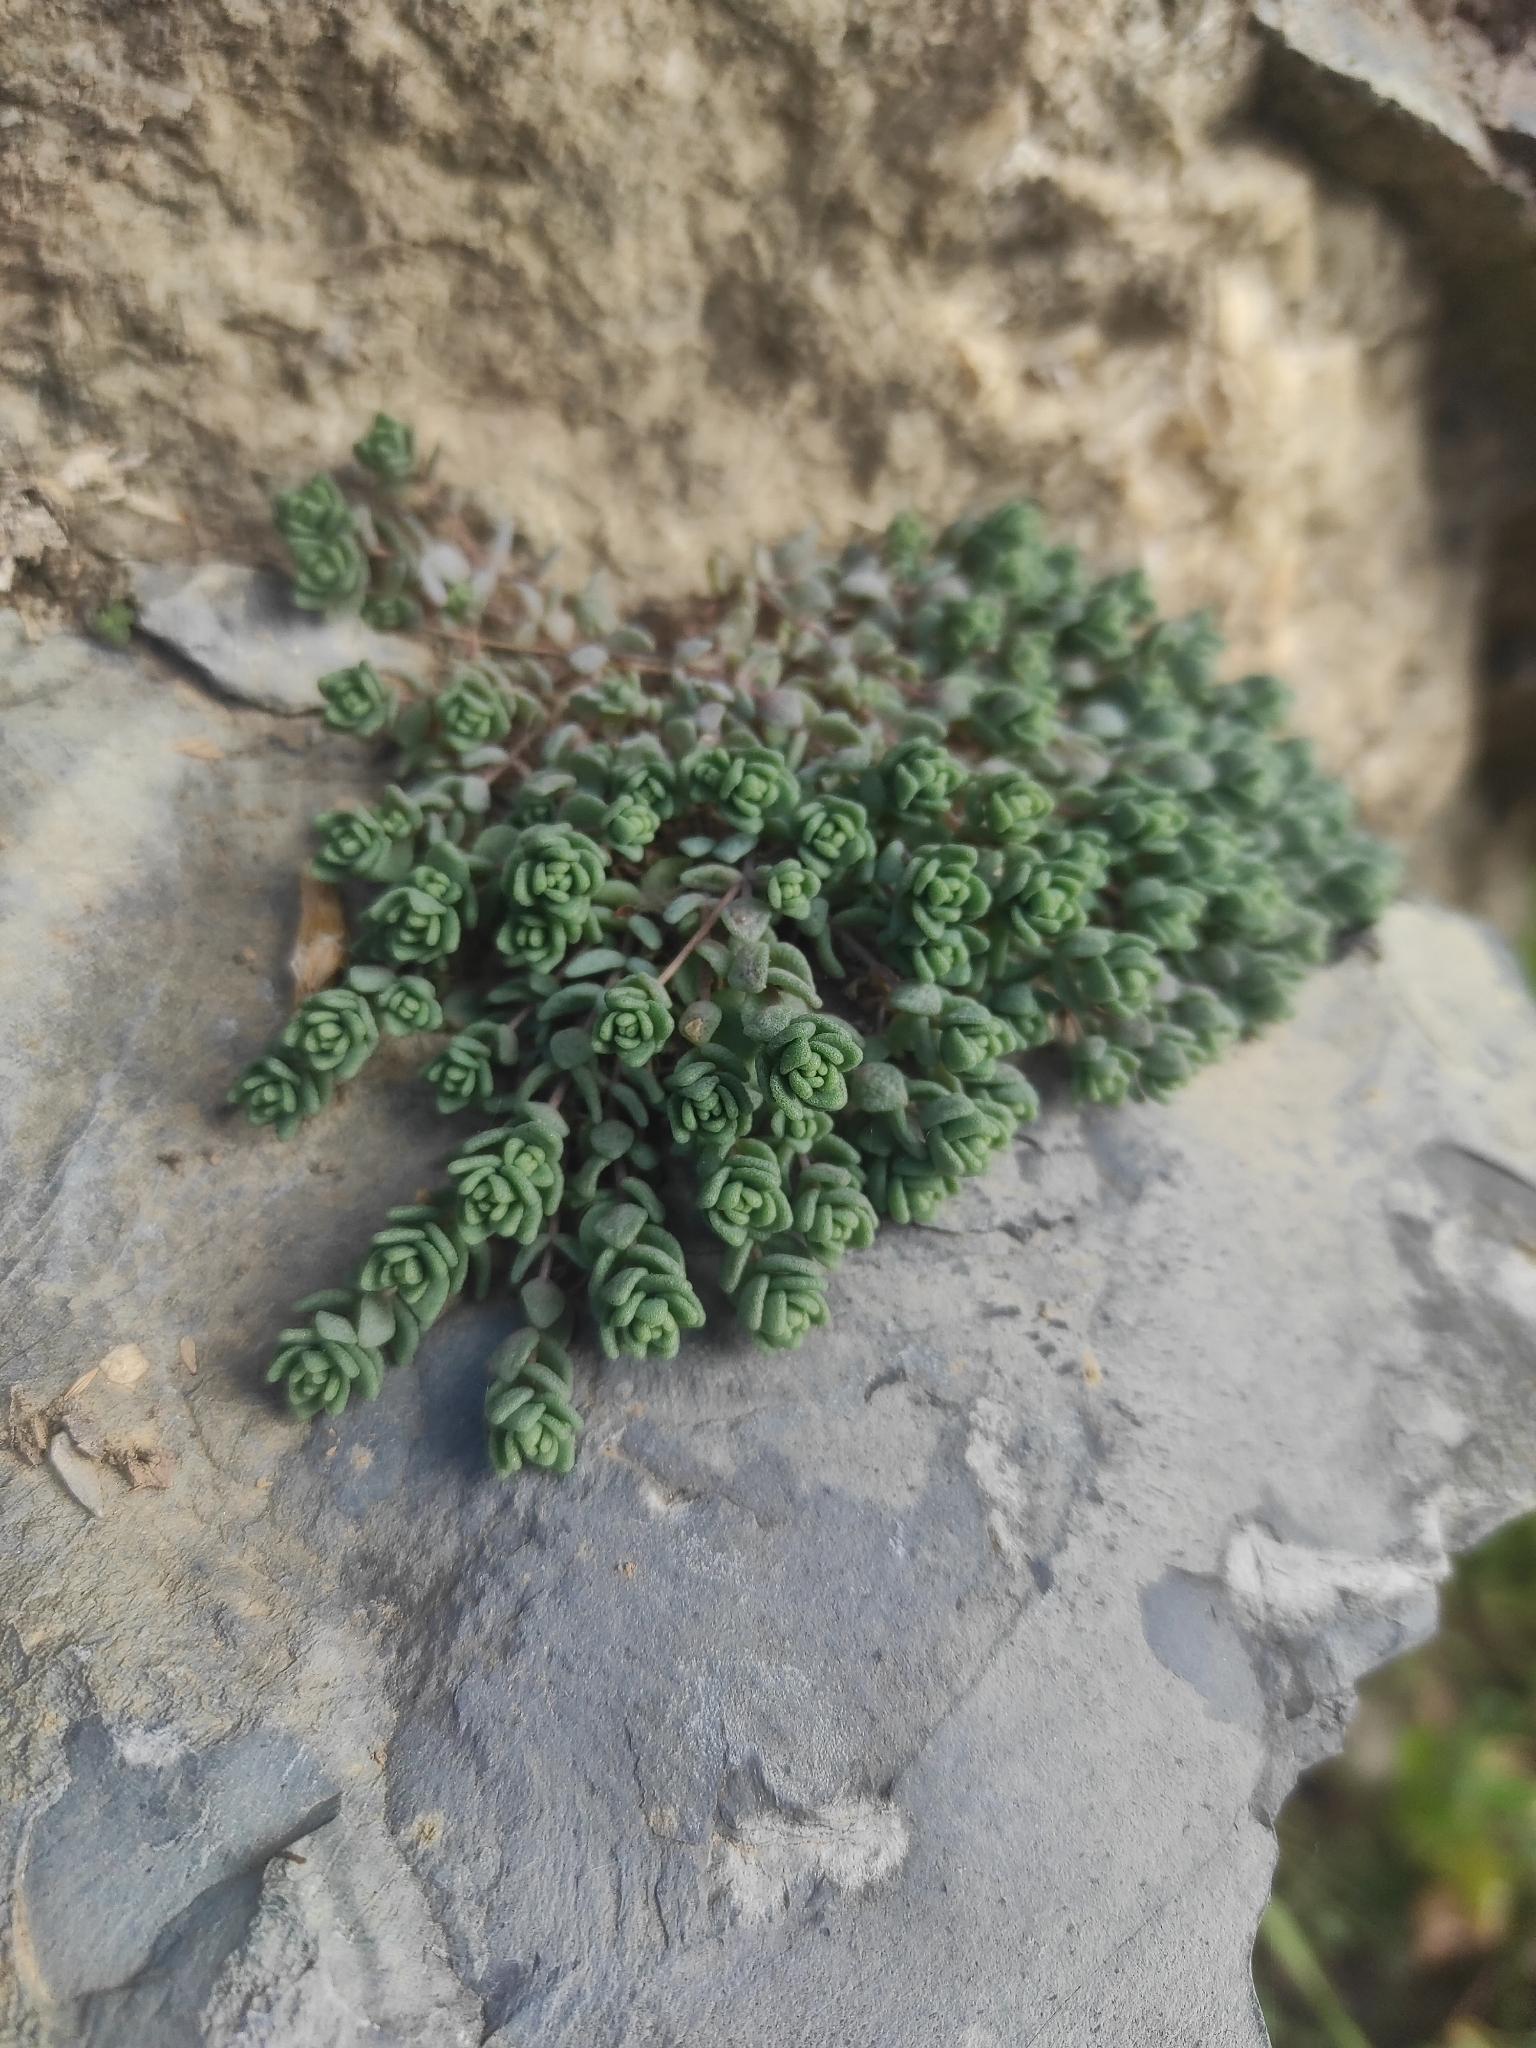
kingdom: Plantae
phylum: Tracheophyta
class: Magnoliopsida
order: Saxifragales
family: Crassulaceae
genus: Sedum
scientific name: Sedum dasyphyllum
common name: Thick-leaf stonecrop
